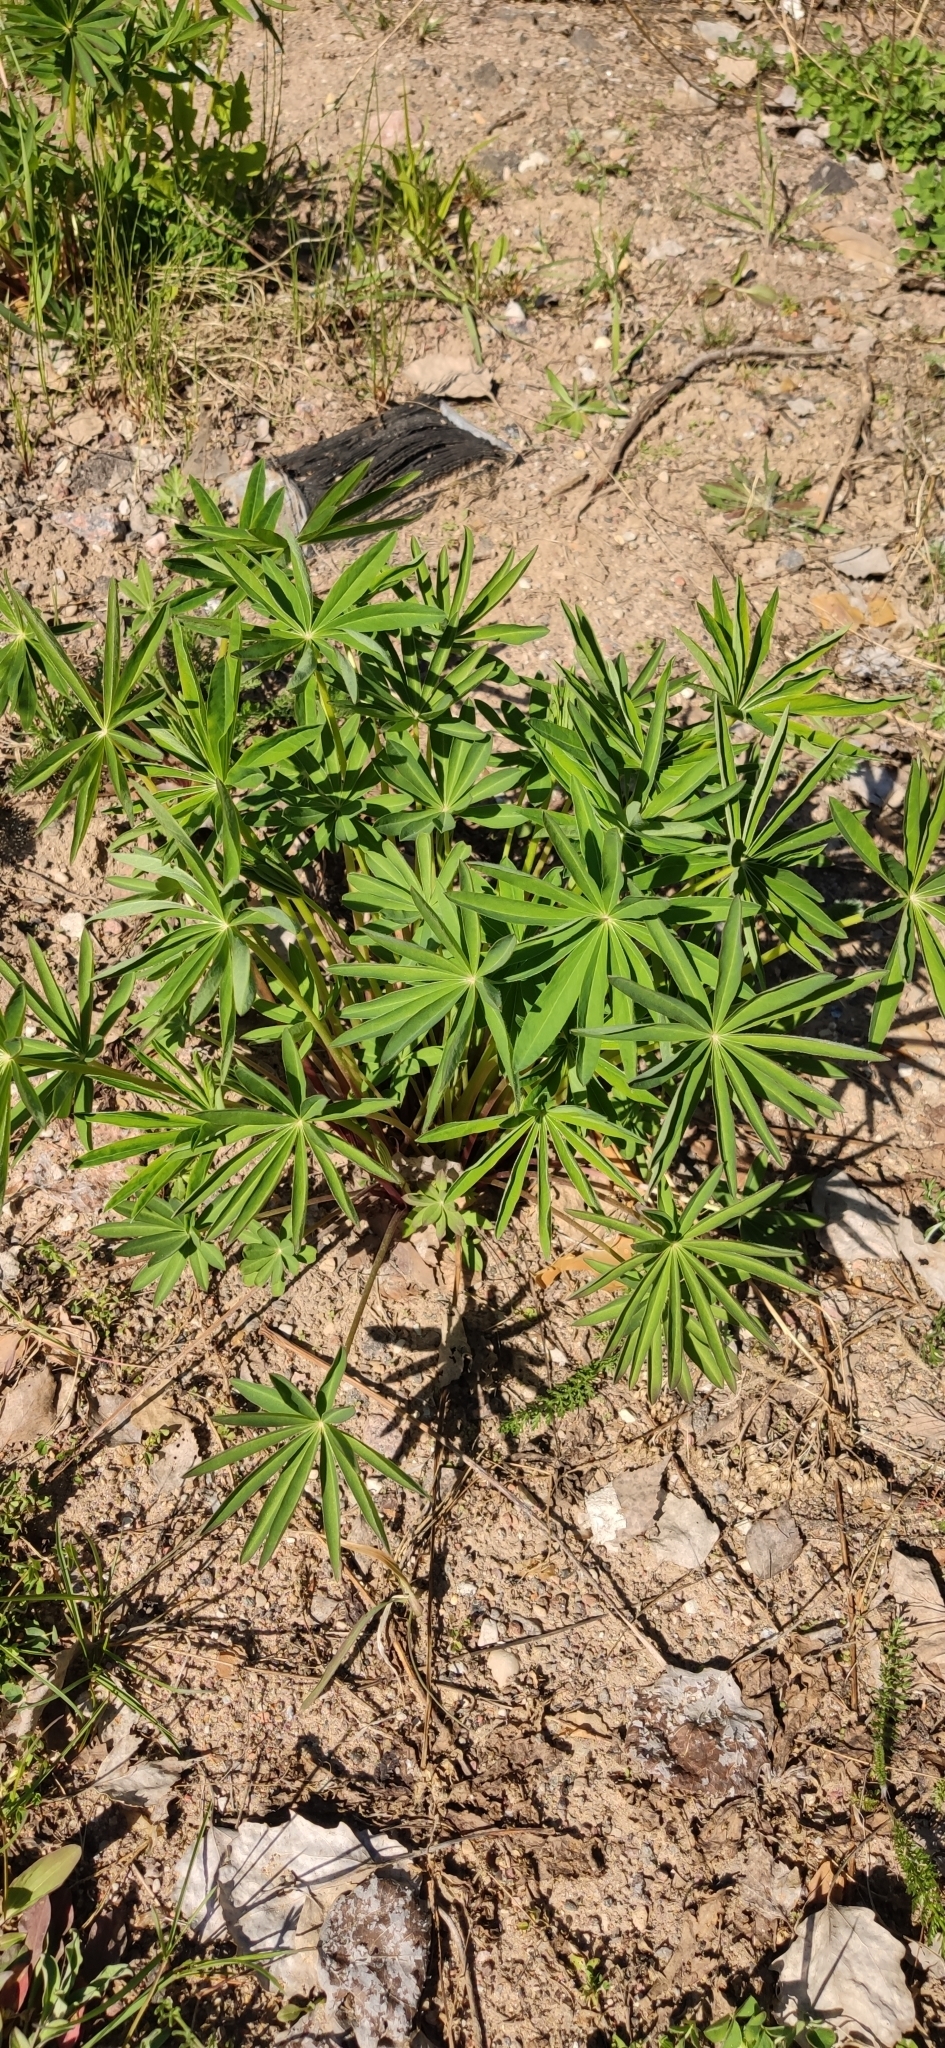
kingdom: Plantae
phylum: Tracheophyta
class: Magnoliopsida
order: Fabales
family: Fabaceae
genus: Lupinus
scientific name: Lupinus polyphyllus
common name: Garden lupin
